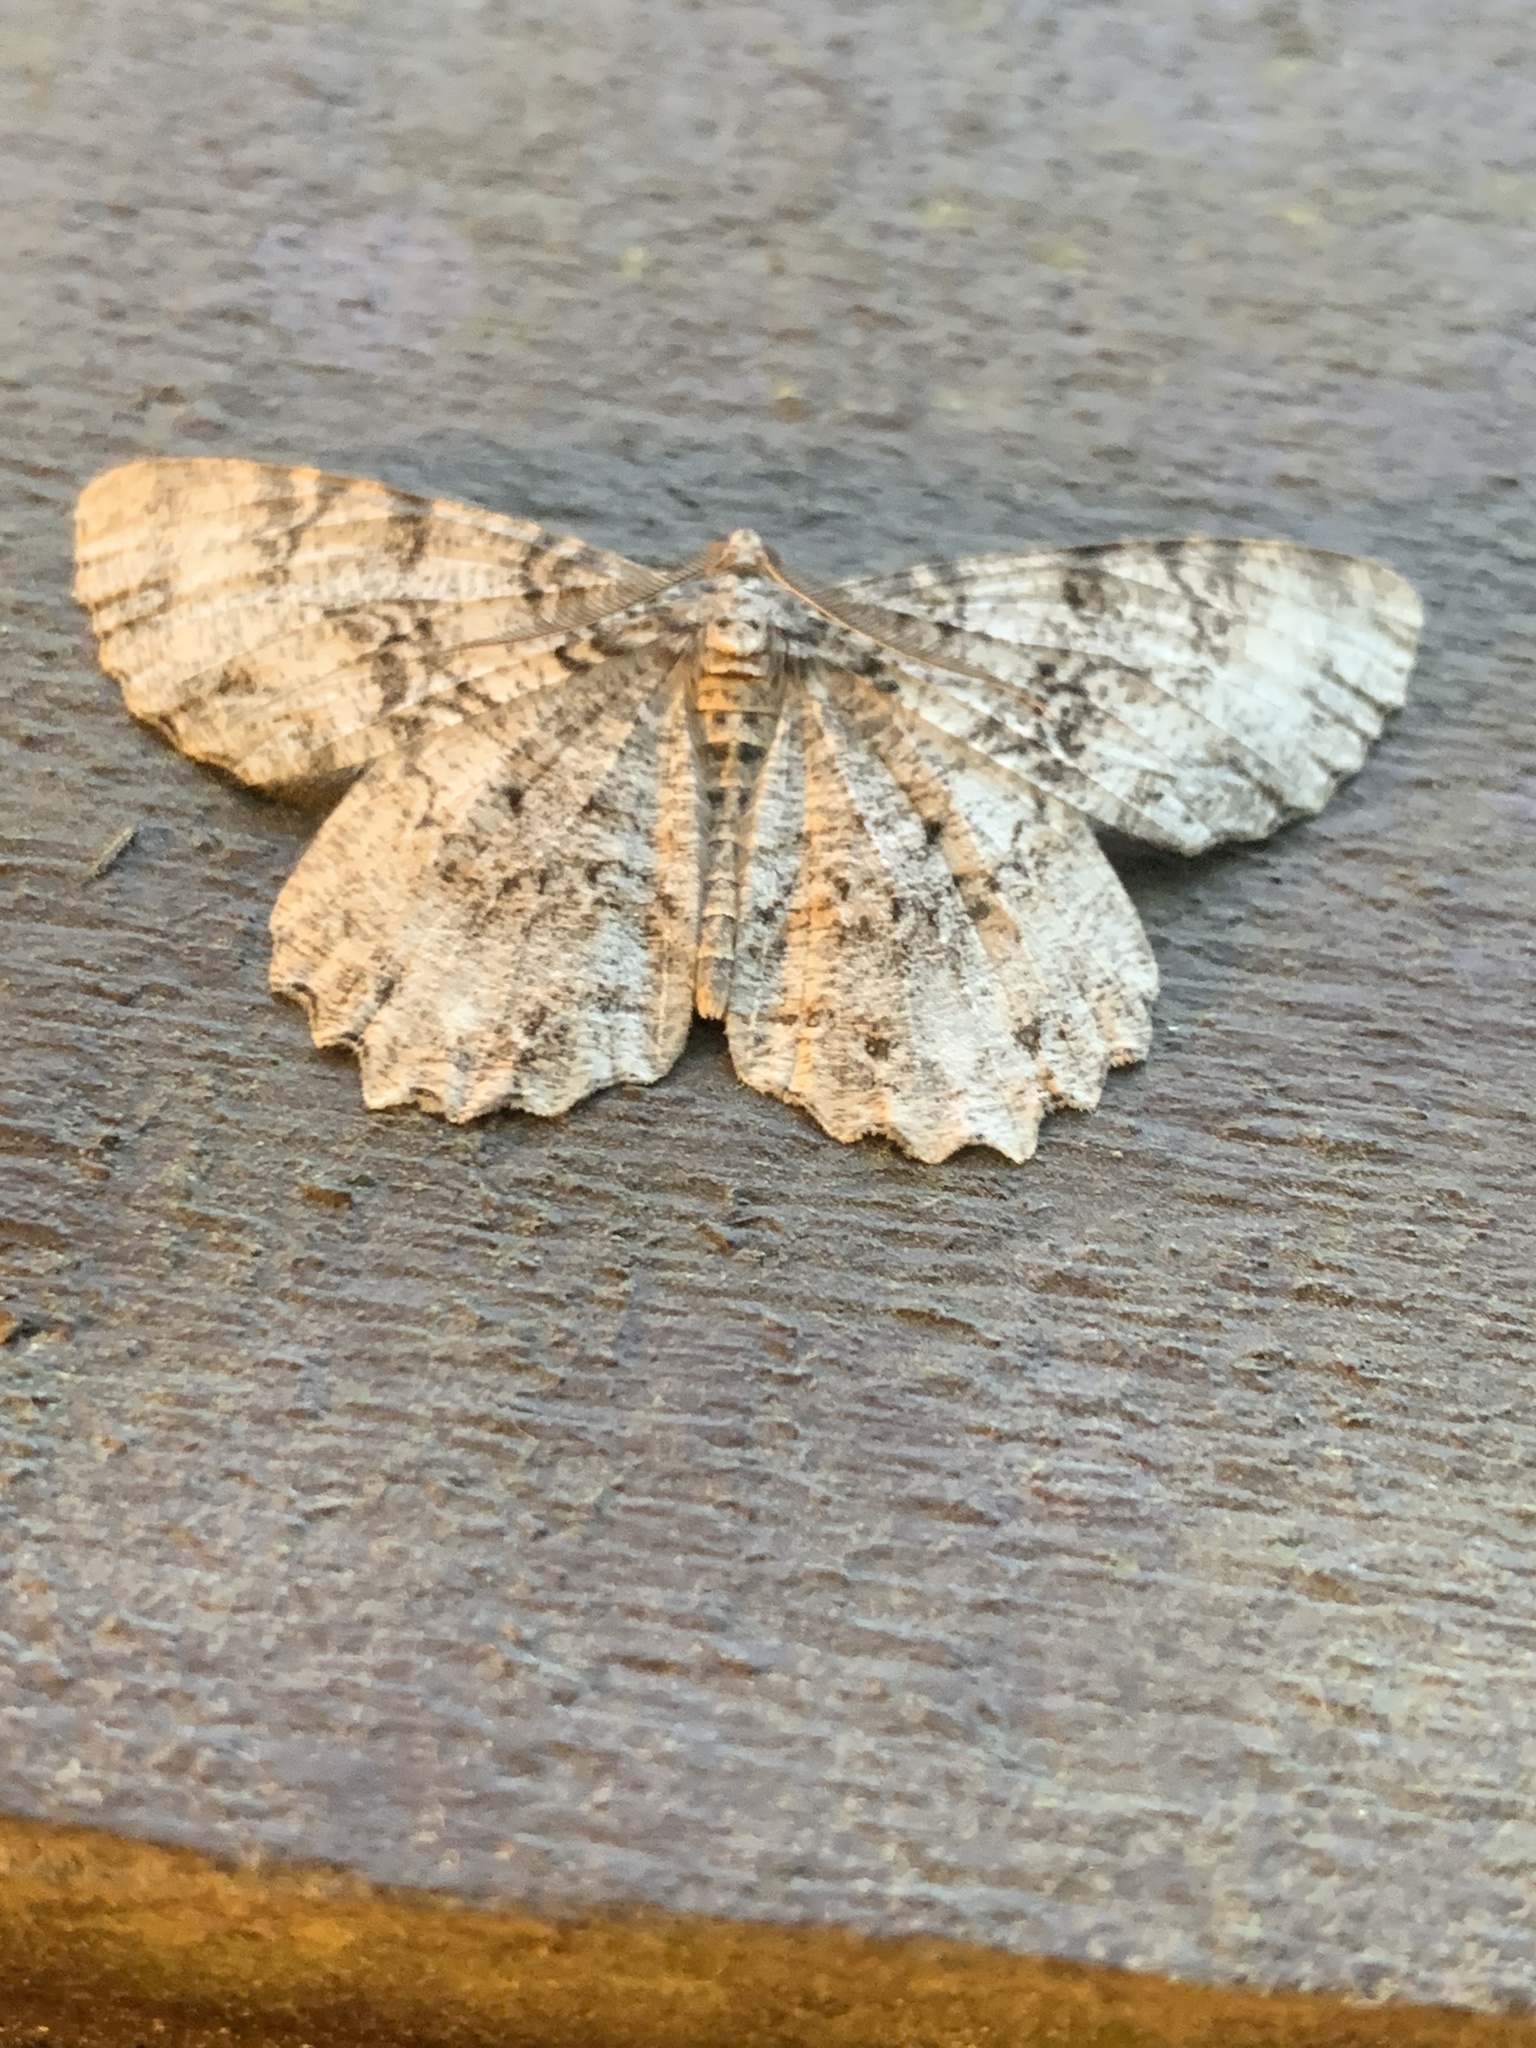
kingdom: Animalia
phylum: Arthropoda
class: Insecta
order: Lepidoptera
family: Geometridae
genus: Epimecis
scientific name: Epimecis hortaria
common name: Tulip-tree beauty
